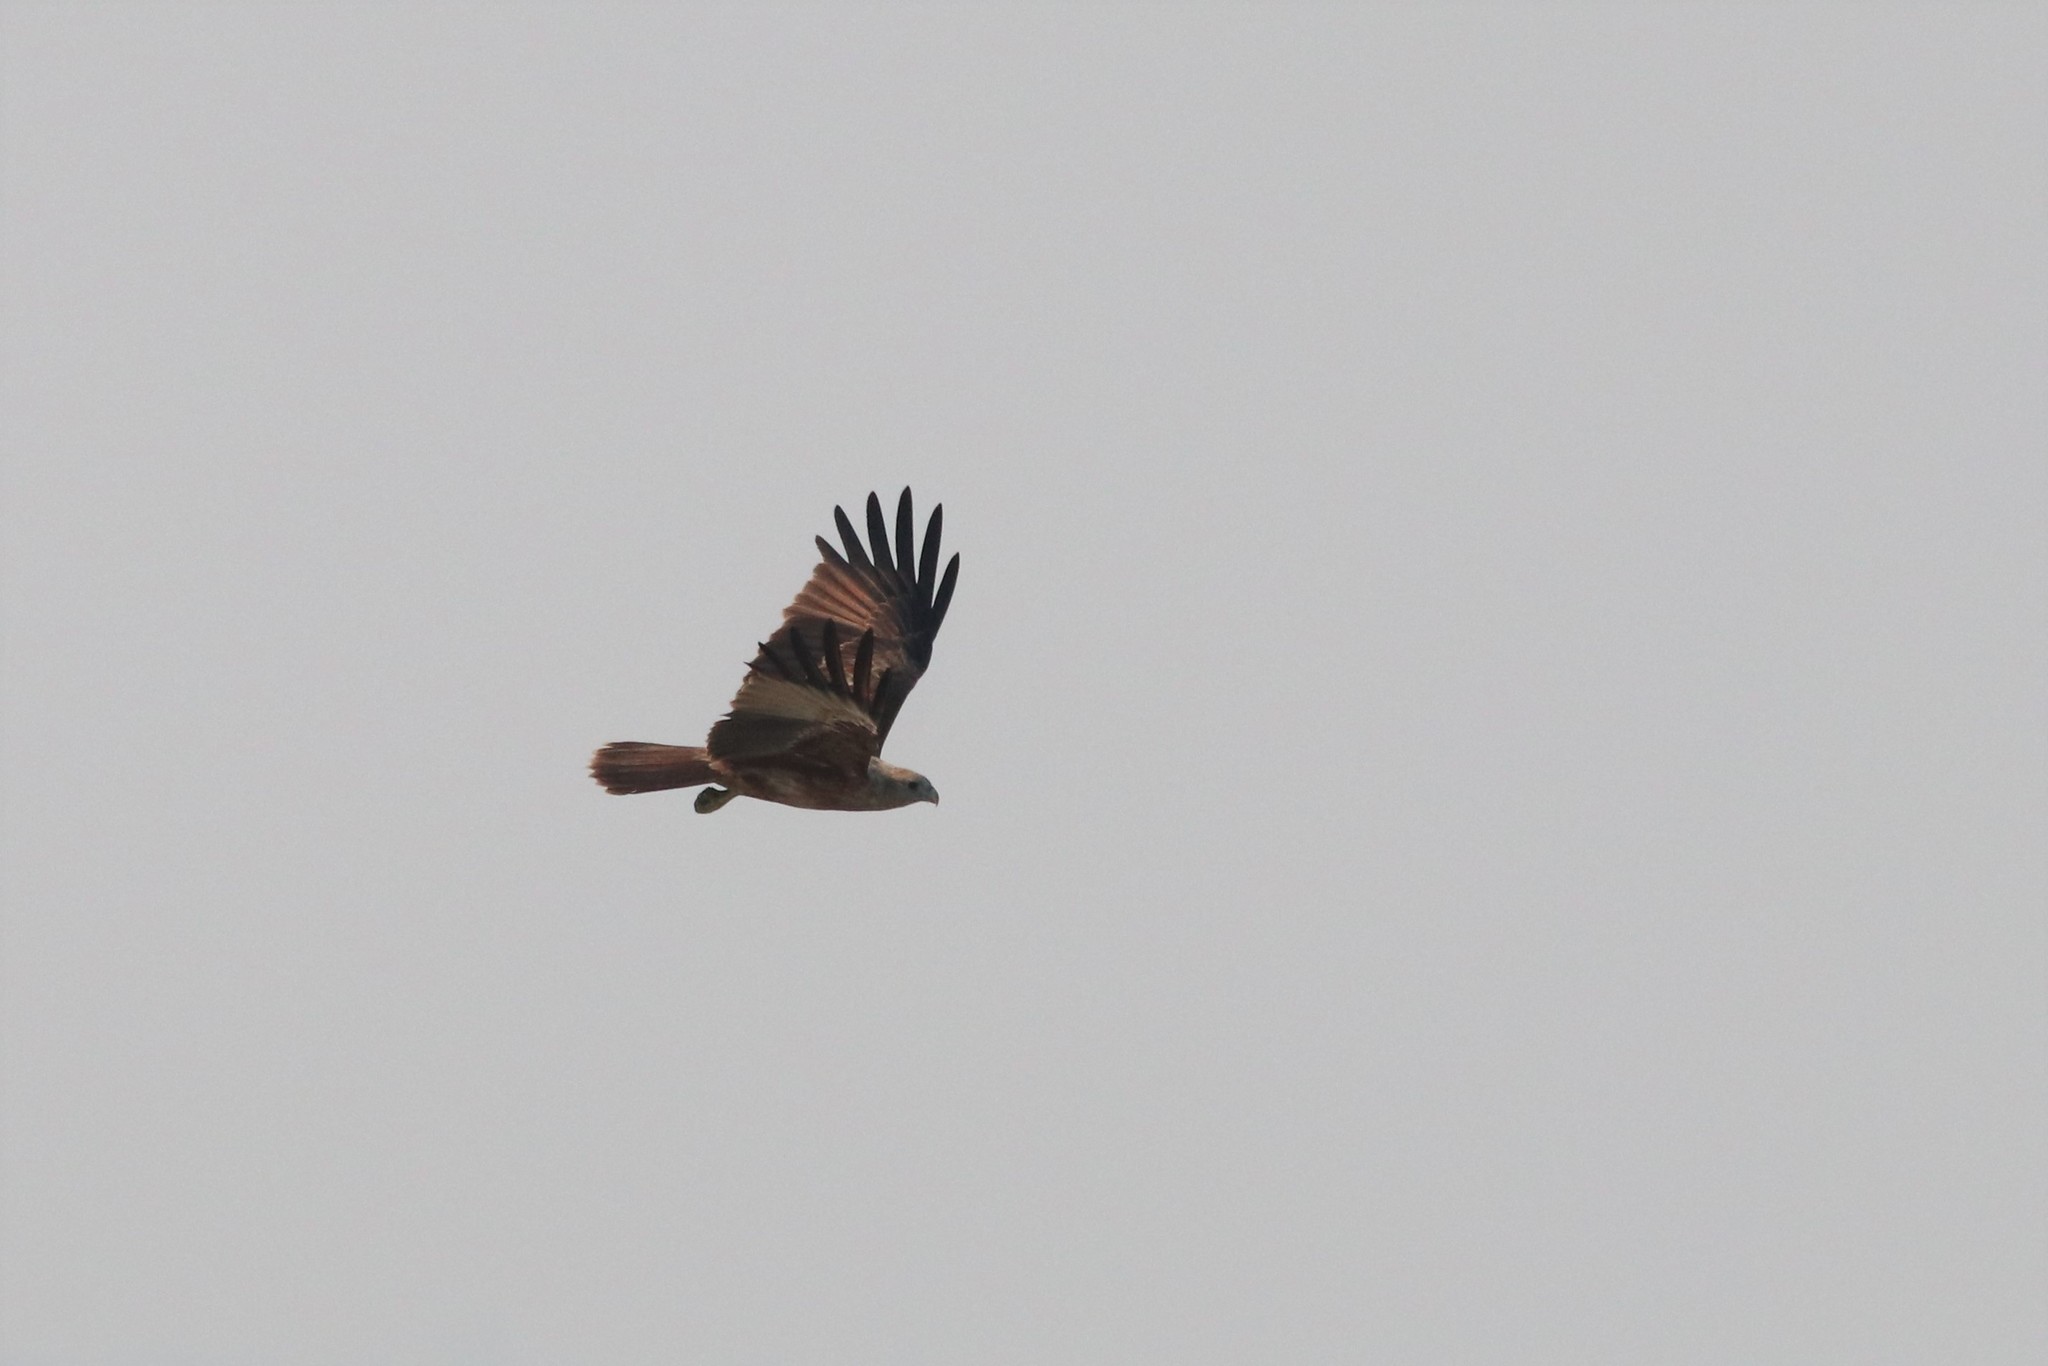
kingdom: Animalia
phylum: Chordata
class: Aves
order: Accipitriformes
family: Accipitridae
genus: Haliastur
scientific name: Haliastur indus
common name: Brahminy kite
